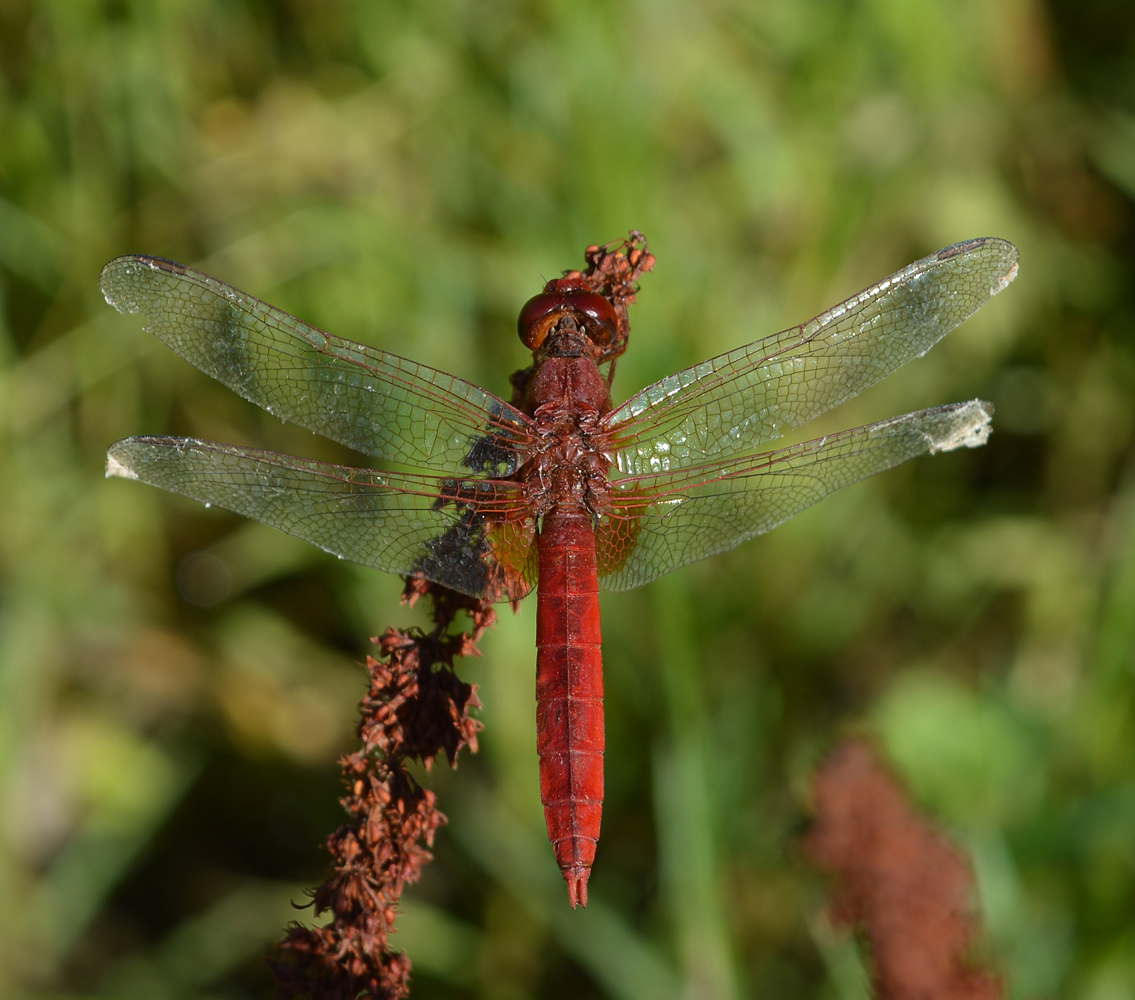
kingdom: Animalia
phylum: Arthropoda
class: Insecta
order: Odonata
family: Libellulidae
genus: Crocothemis
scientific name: Crocothemis erythraea
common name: Scarlet dragonfly
